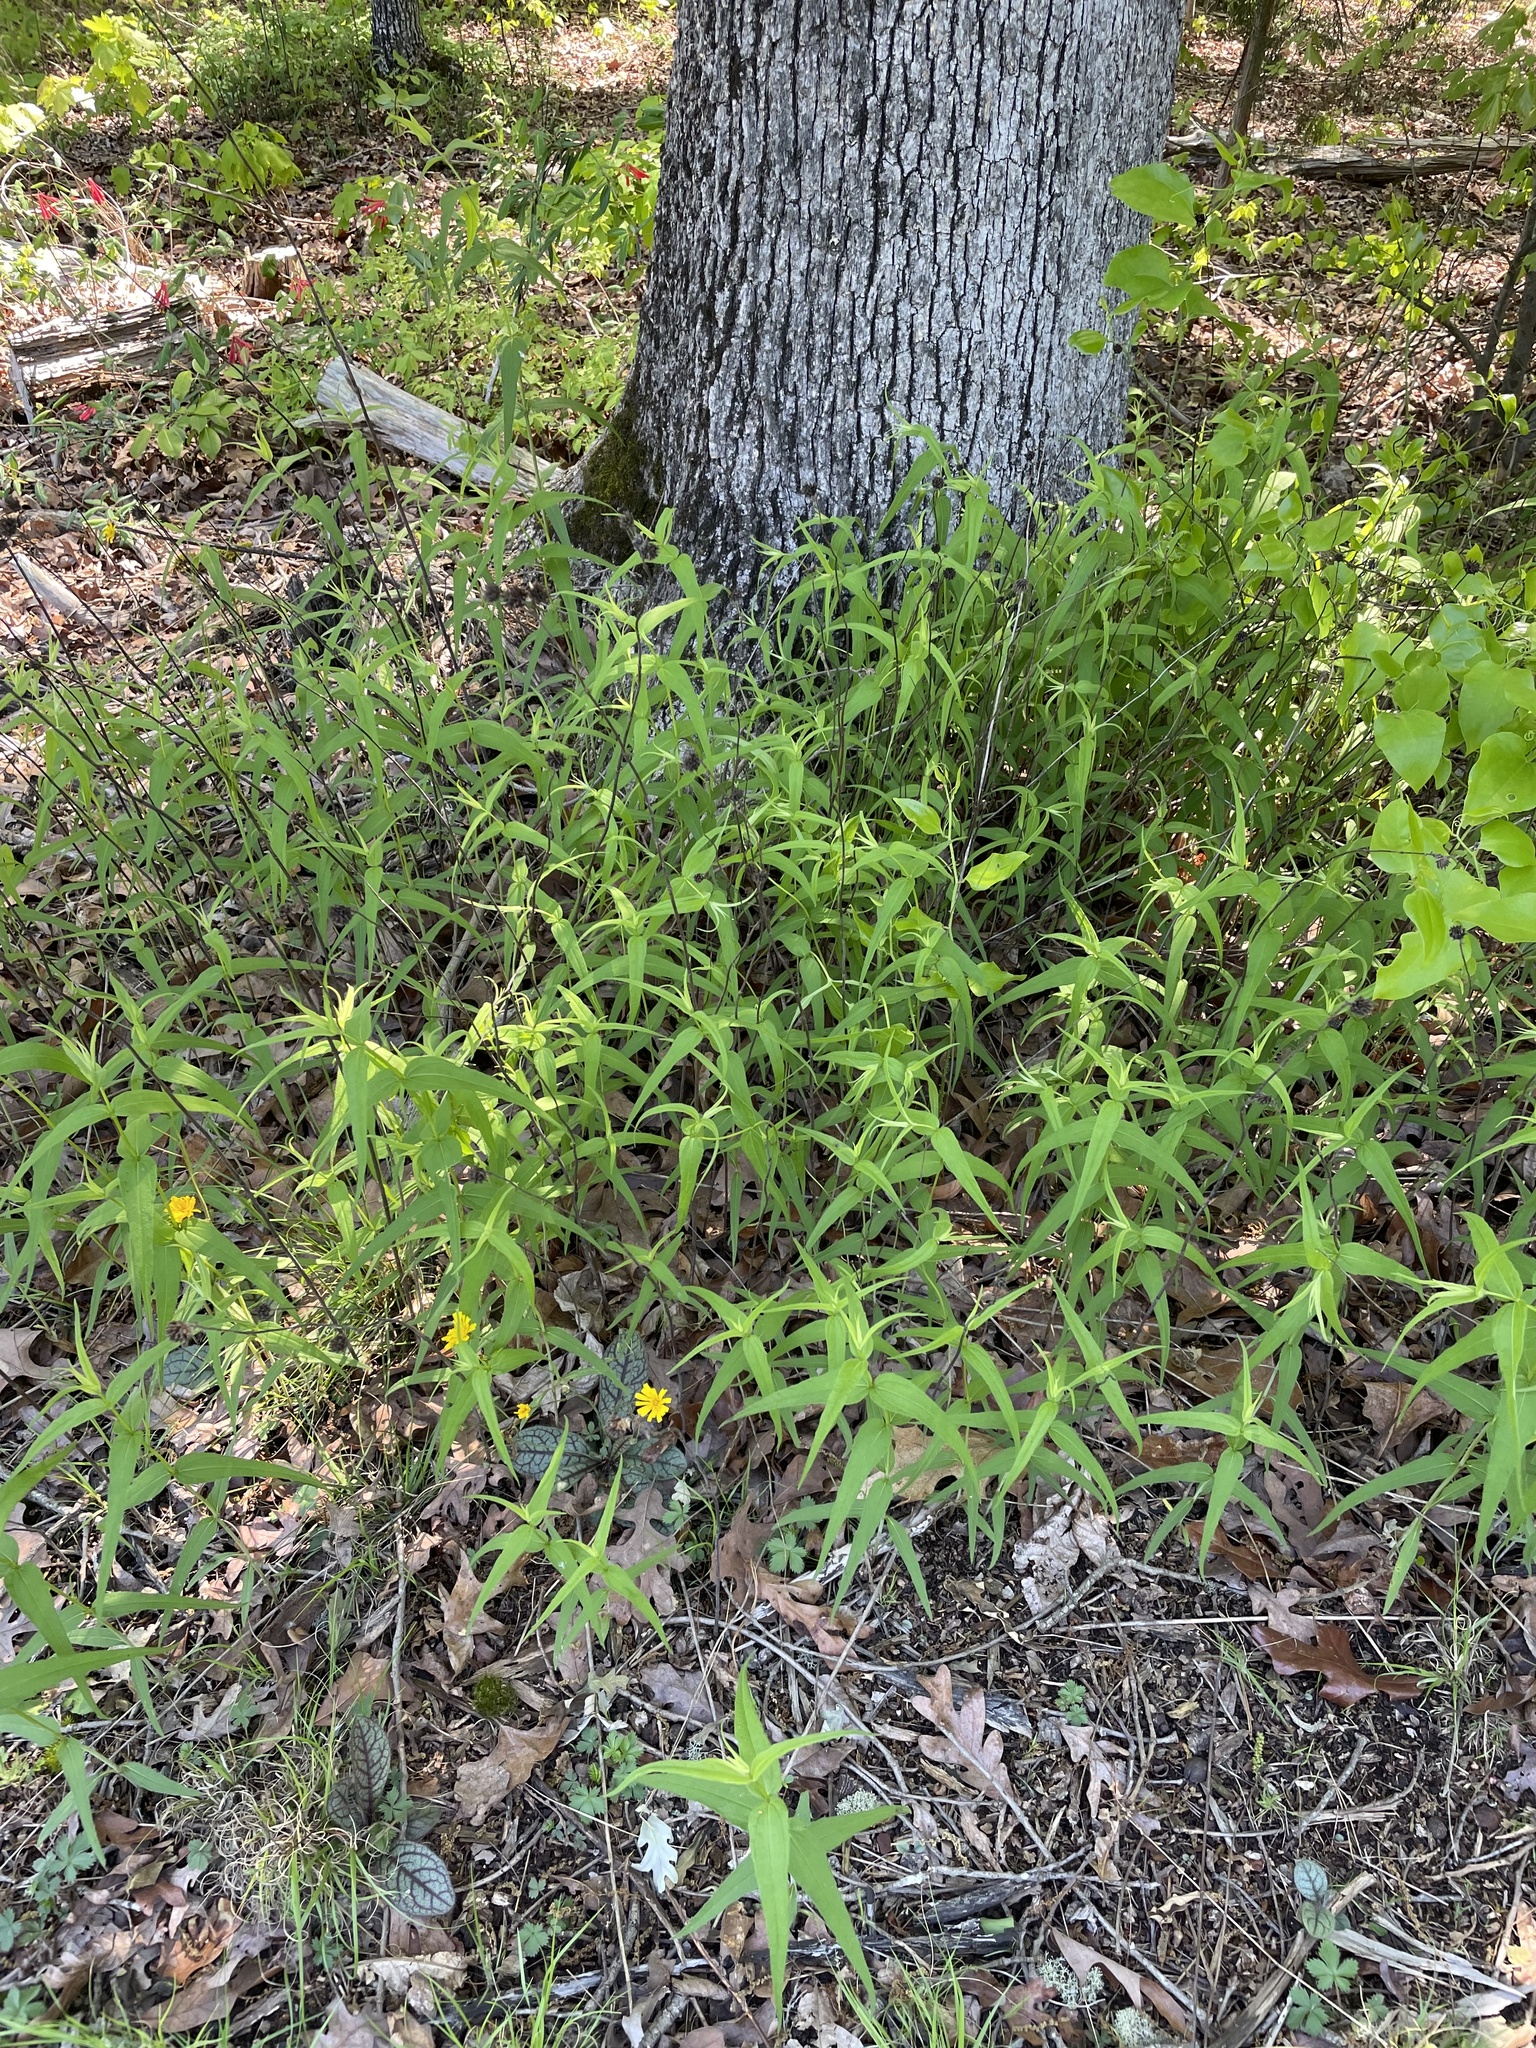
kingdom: Plantae
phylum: Tracheophyta
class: Magnoliopsida
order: Asterales
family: Asteraceae
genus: Helianthus
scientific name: Helianthus divaricatus
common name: Divergent sunflower
